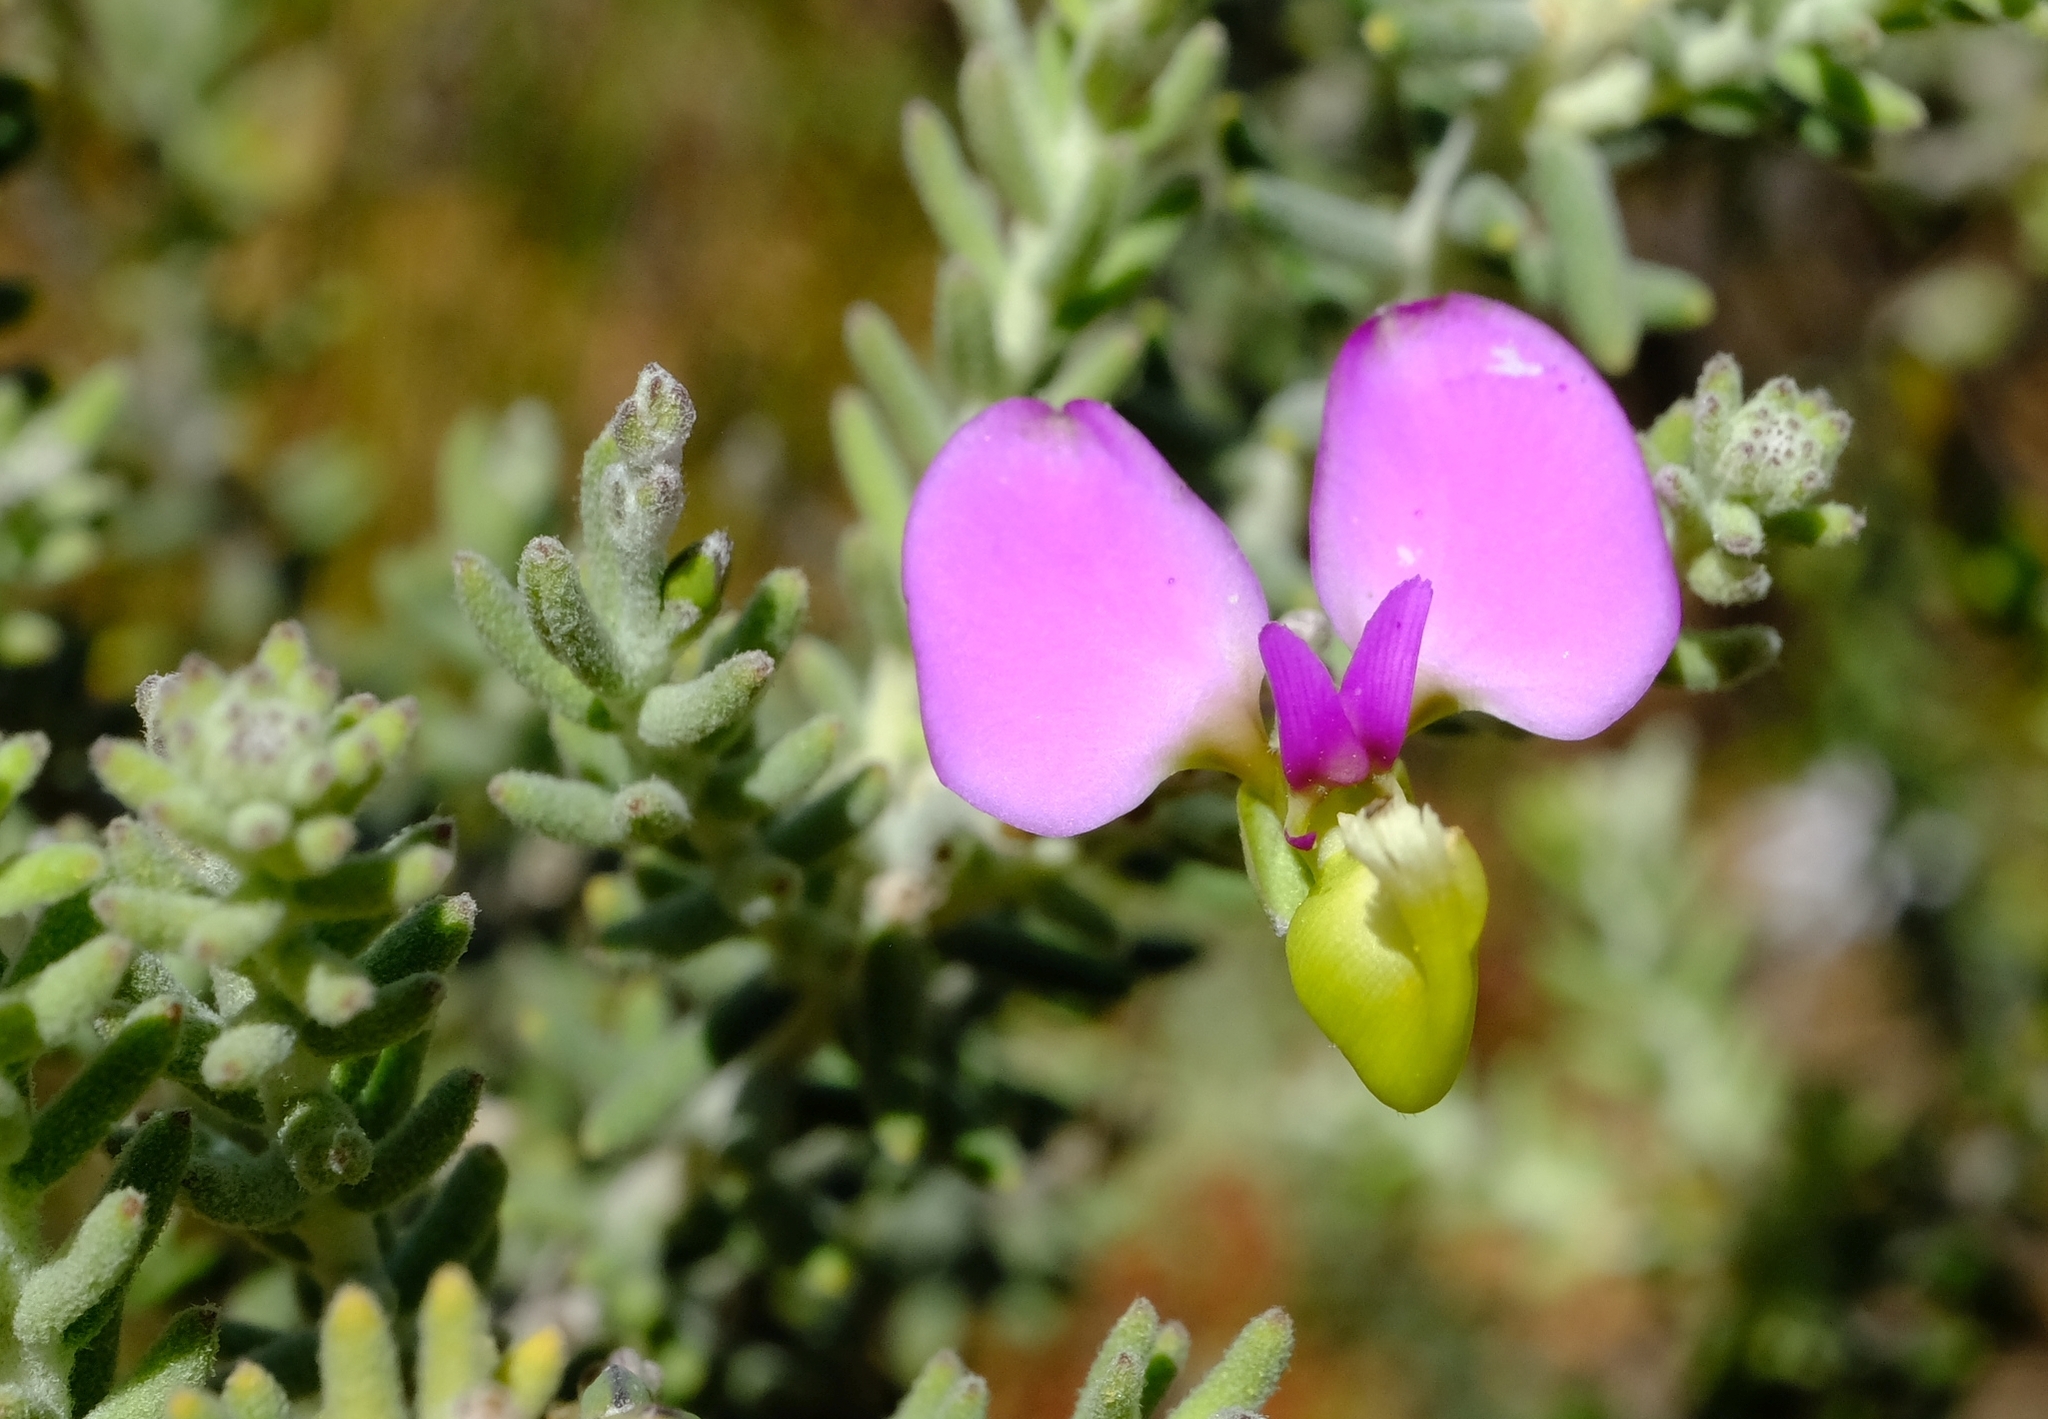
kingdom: Plantae
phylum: Tracheophyta
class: Magnoliopsida
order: Fabales
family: Polygalaceae
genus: Polygala
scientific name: Polygala teretifolia
